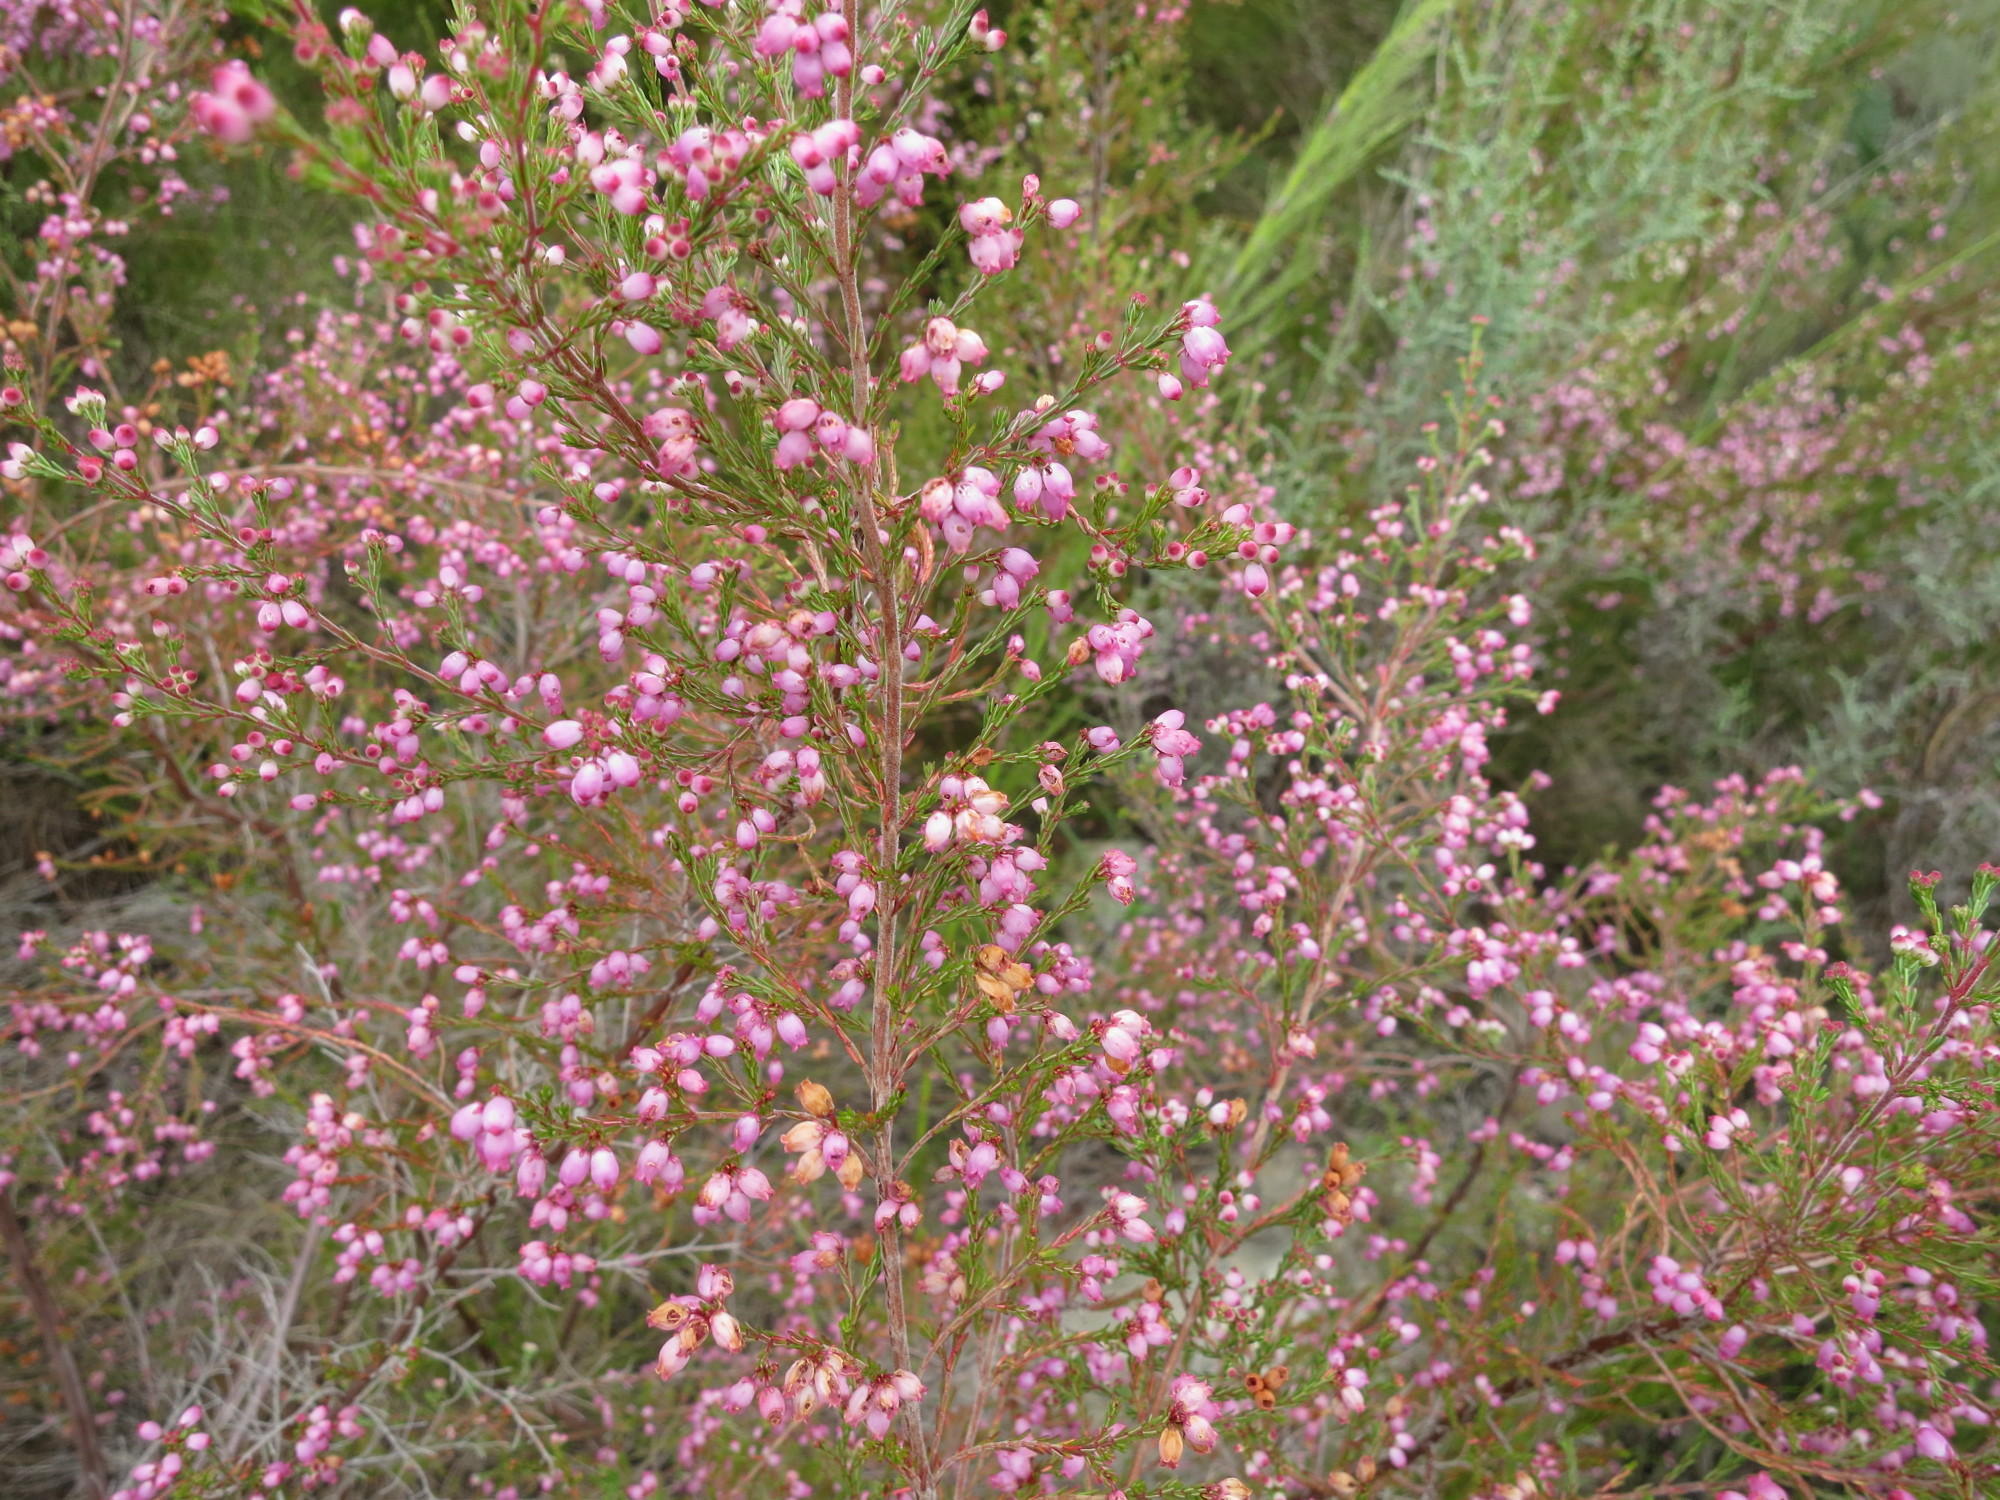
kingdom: Plantae
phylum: Tracheophyta
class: Magnoliopsida
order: Ericales
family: Ericaceae
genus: Erica
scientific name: Erica gracilis
